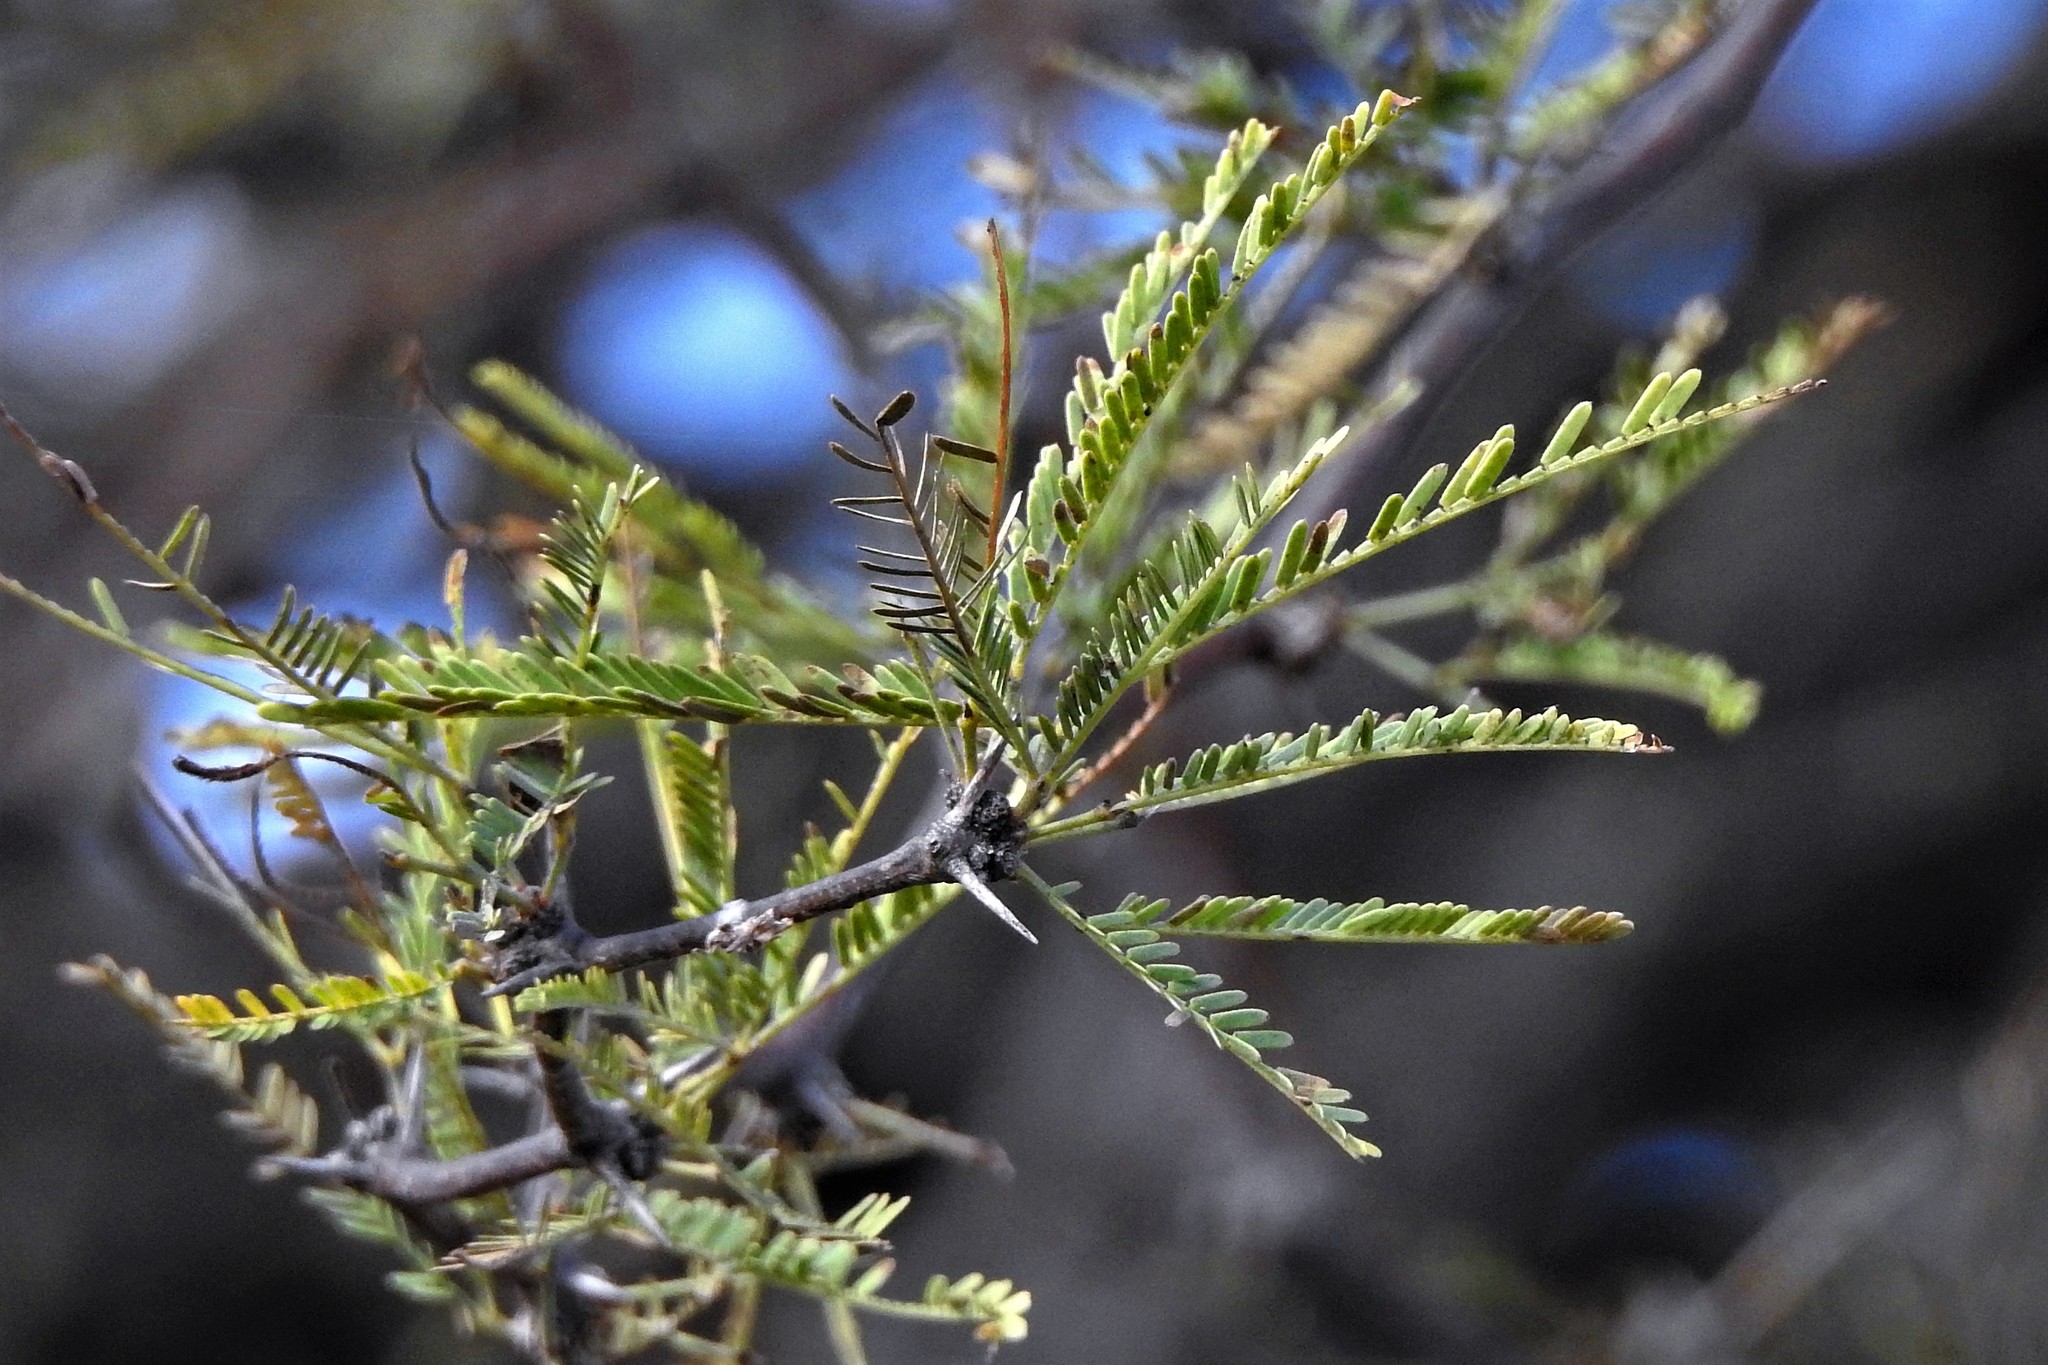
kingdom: Plantae
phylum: Tracheophyta
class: Magnoliopsida
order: Fabales
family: Fabaceae
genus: Prosopis
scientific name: Prosopis caldenia
